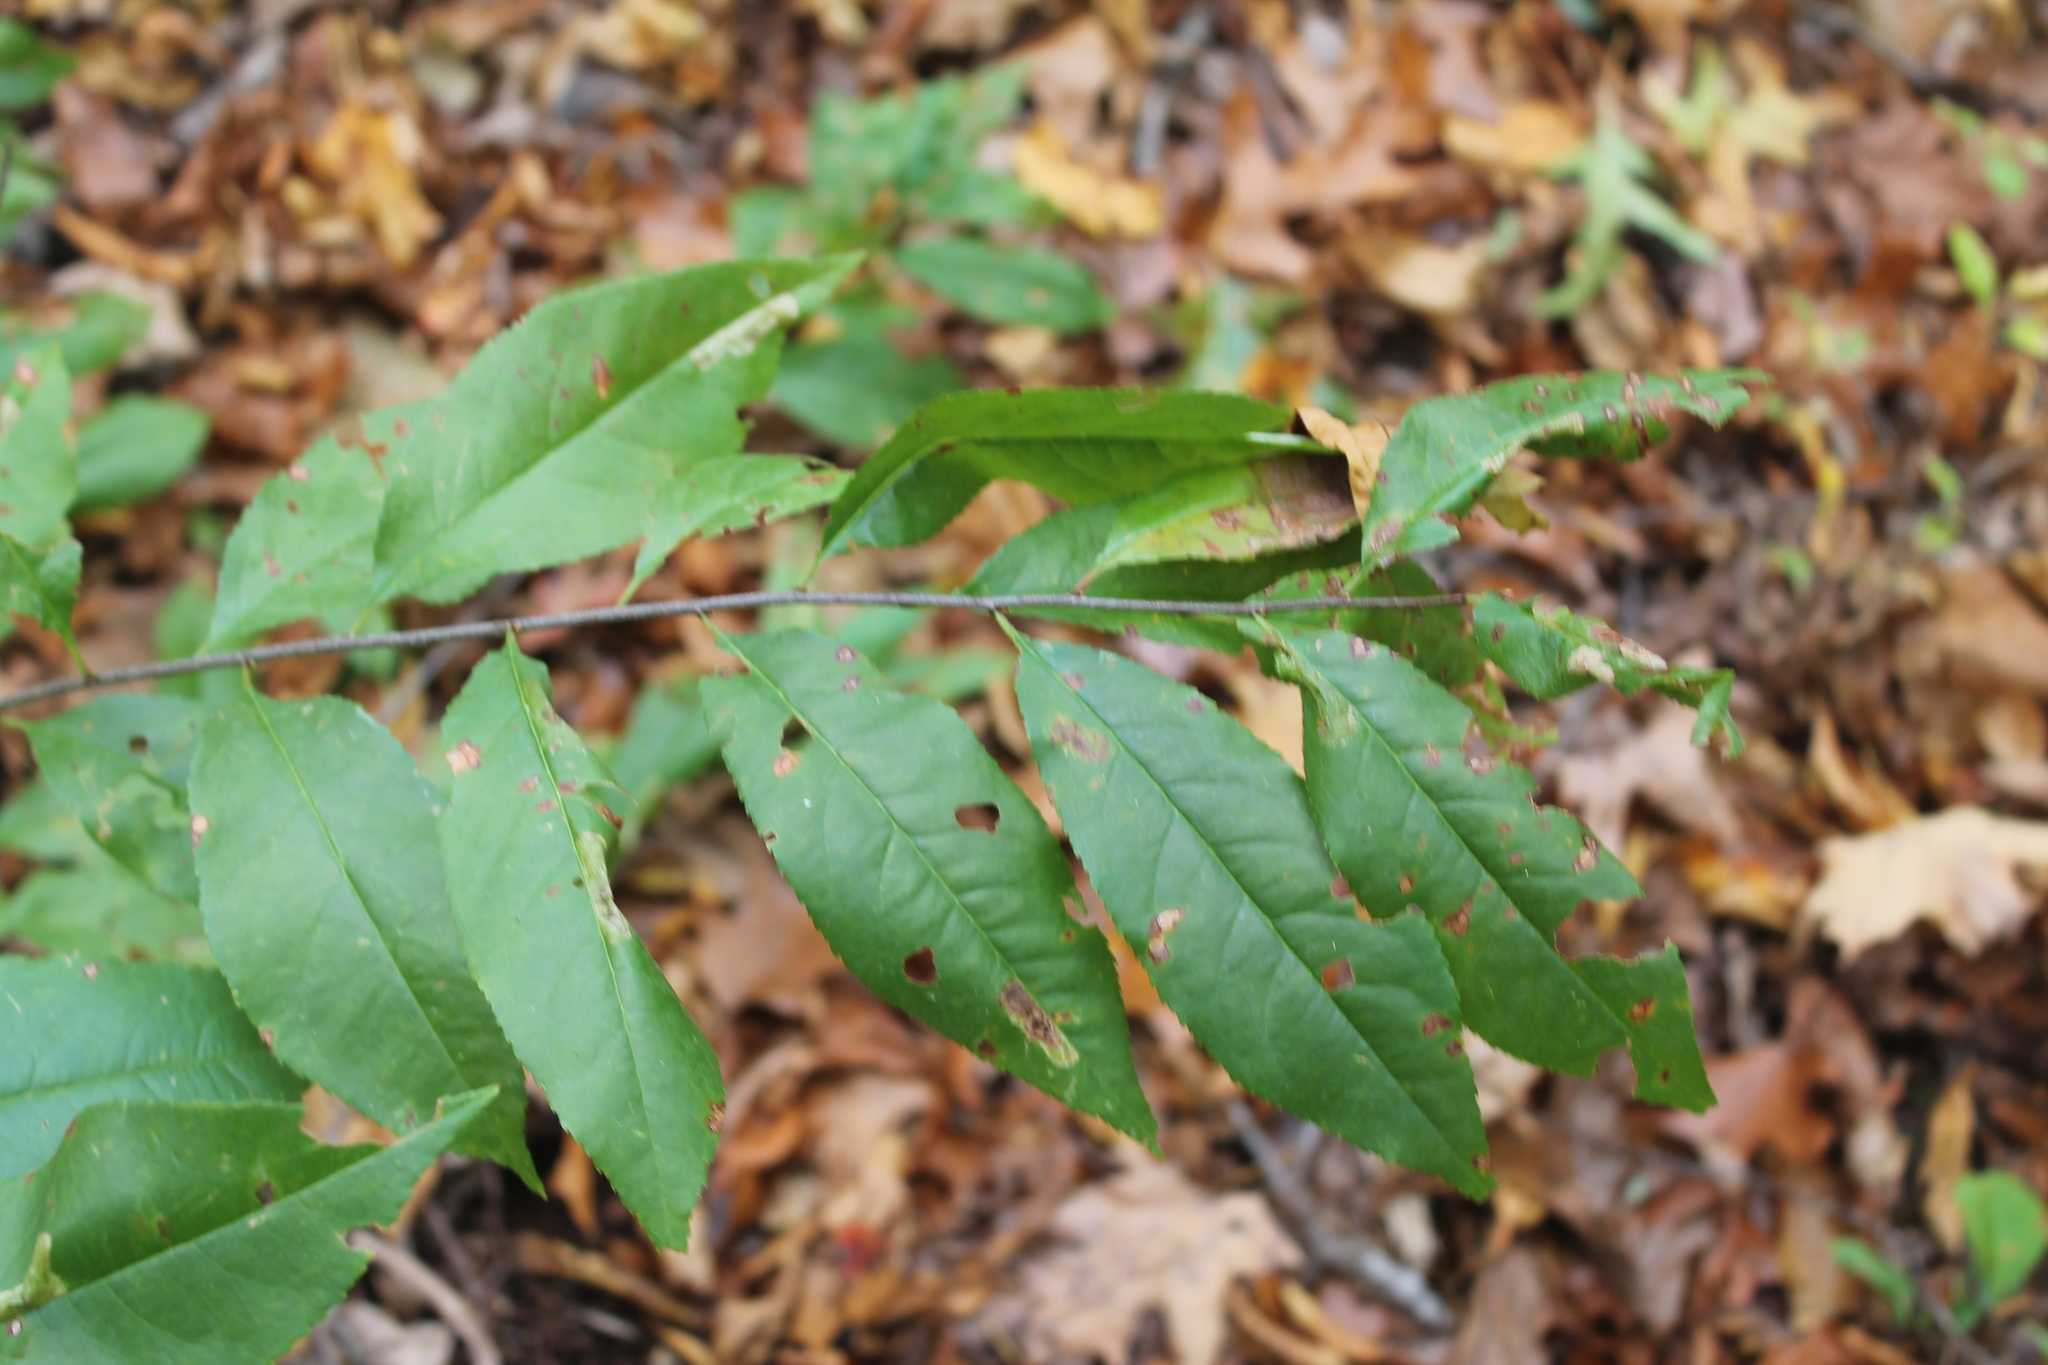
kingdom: Plantae
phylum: Tracheophyta
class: Magnoliopsida
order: Rosales
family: Rosaceae
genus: Prunus
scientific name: Prunus serotina
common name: Black cherry
